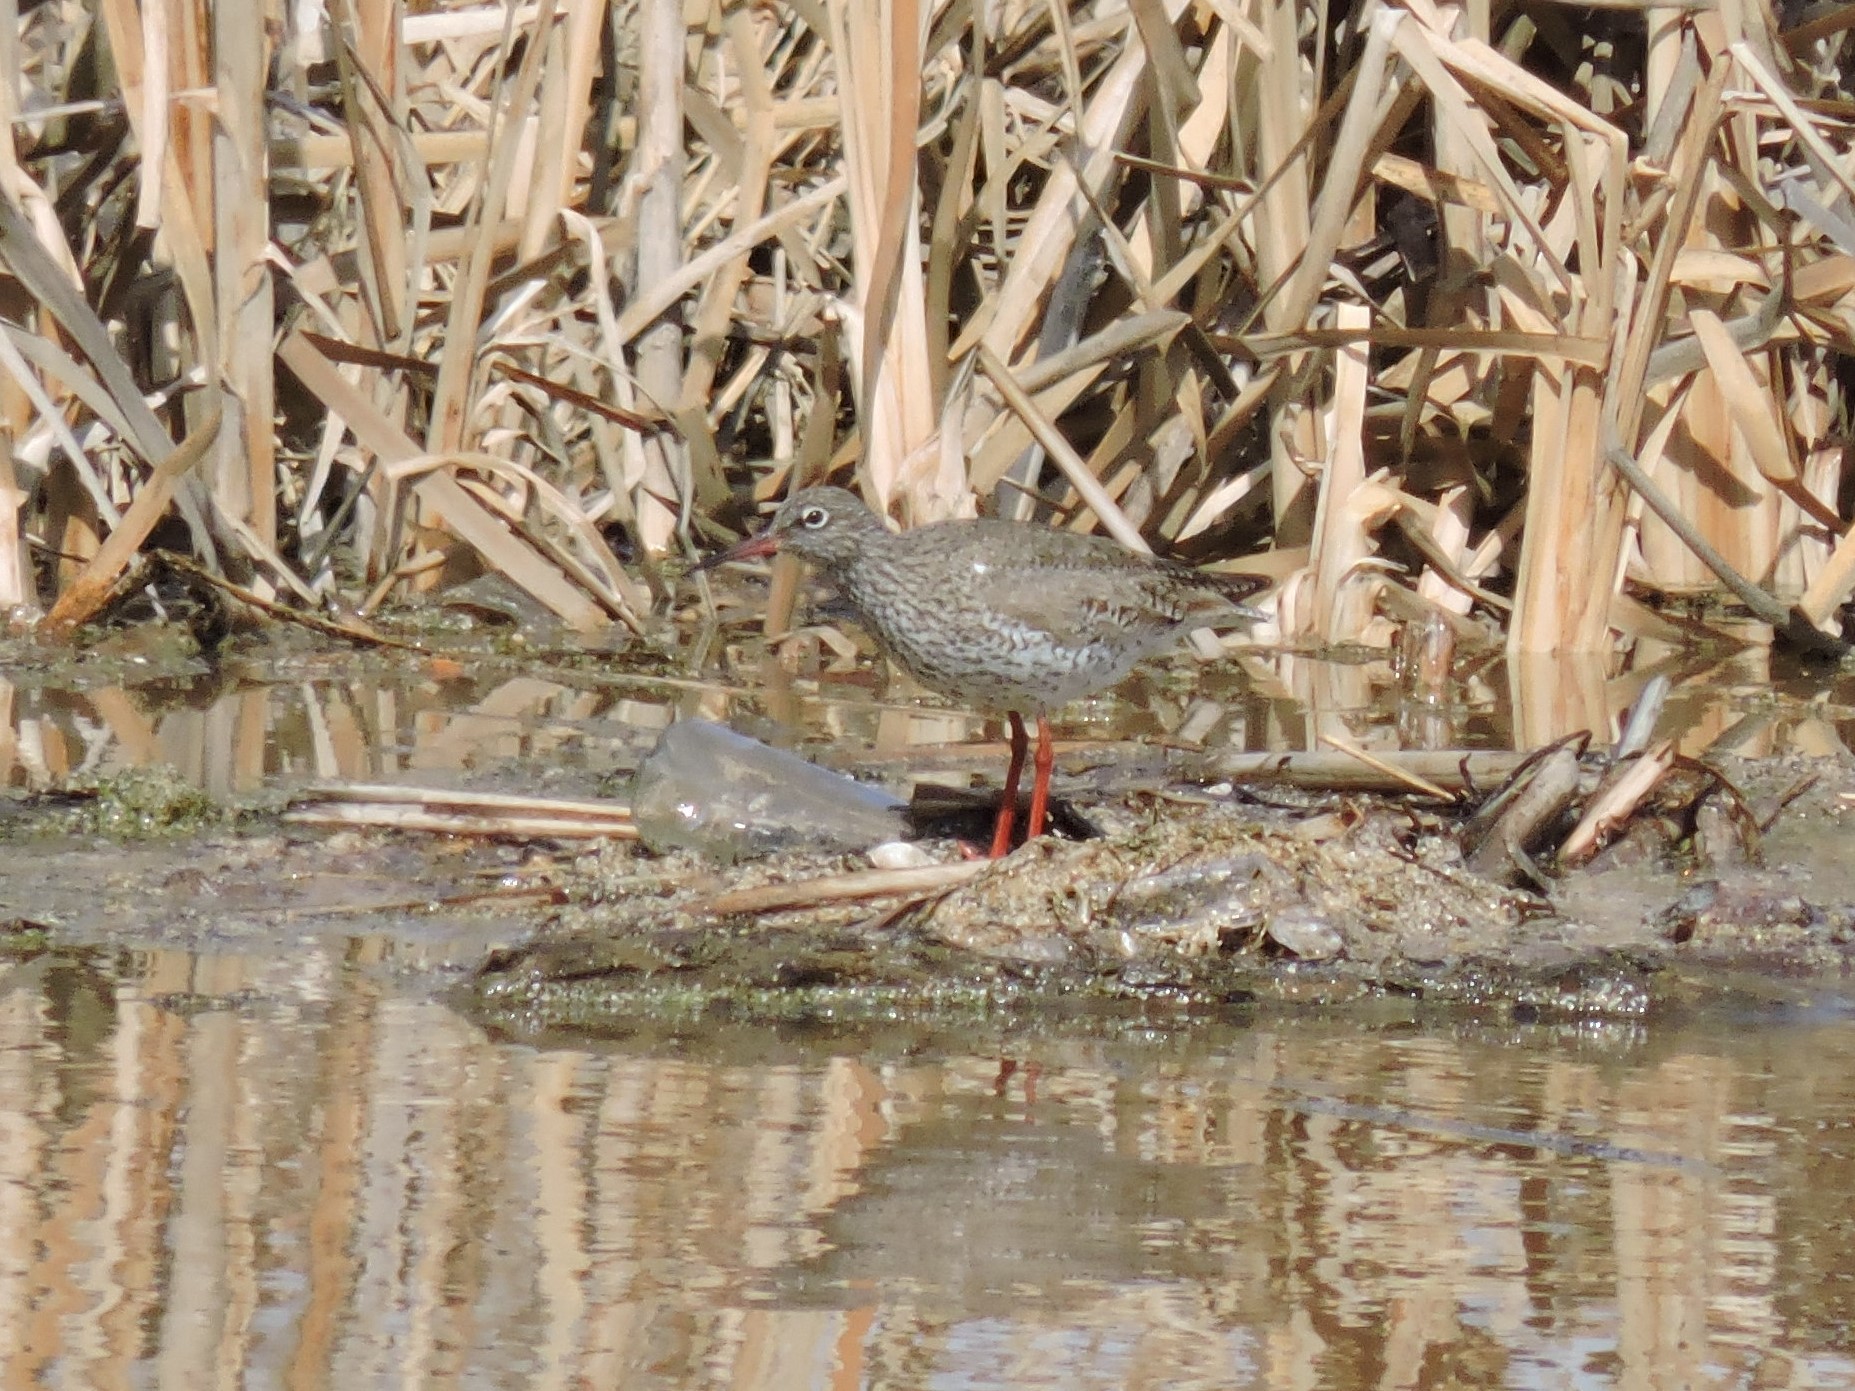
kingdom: Animalia
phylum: Chordata
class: Aves
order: Charadriiformes
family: Scolopacidae
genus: Tringa
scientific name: Tringa totanus
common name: Common redshank
